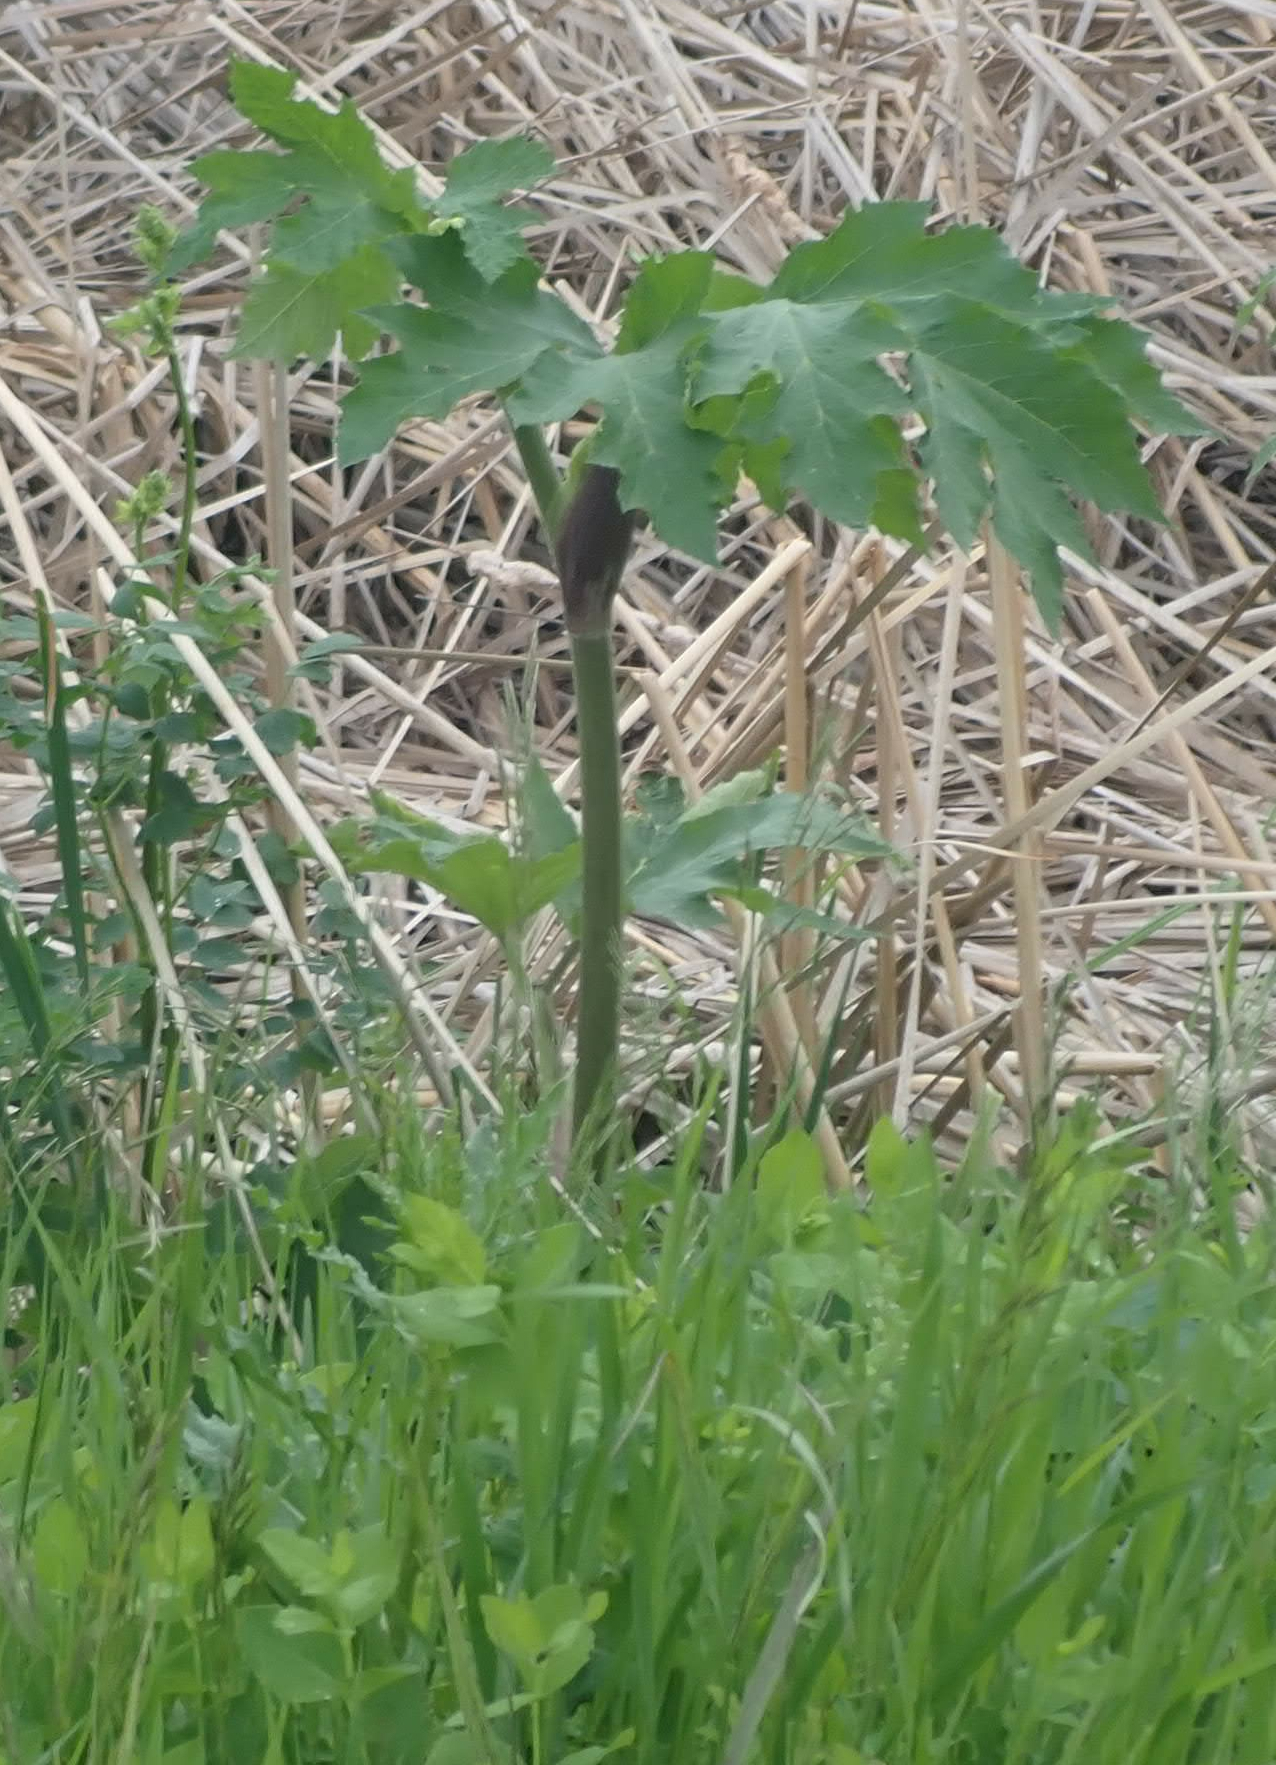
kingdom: Plantae
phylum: Tracheophyta
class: Magnoliopsida
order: Apiales
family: Apiaceae
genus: Heracleum
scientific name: Heracleum maximum
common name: American cow parsnip
